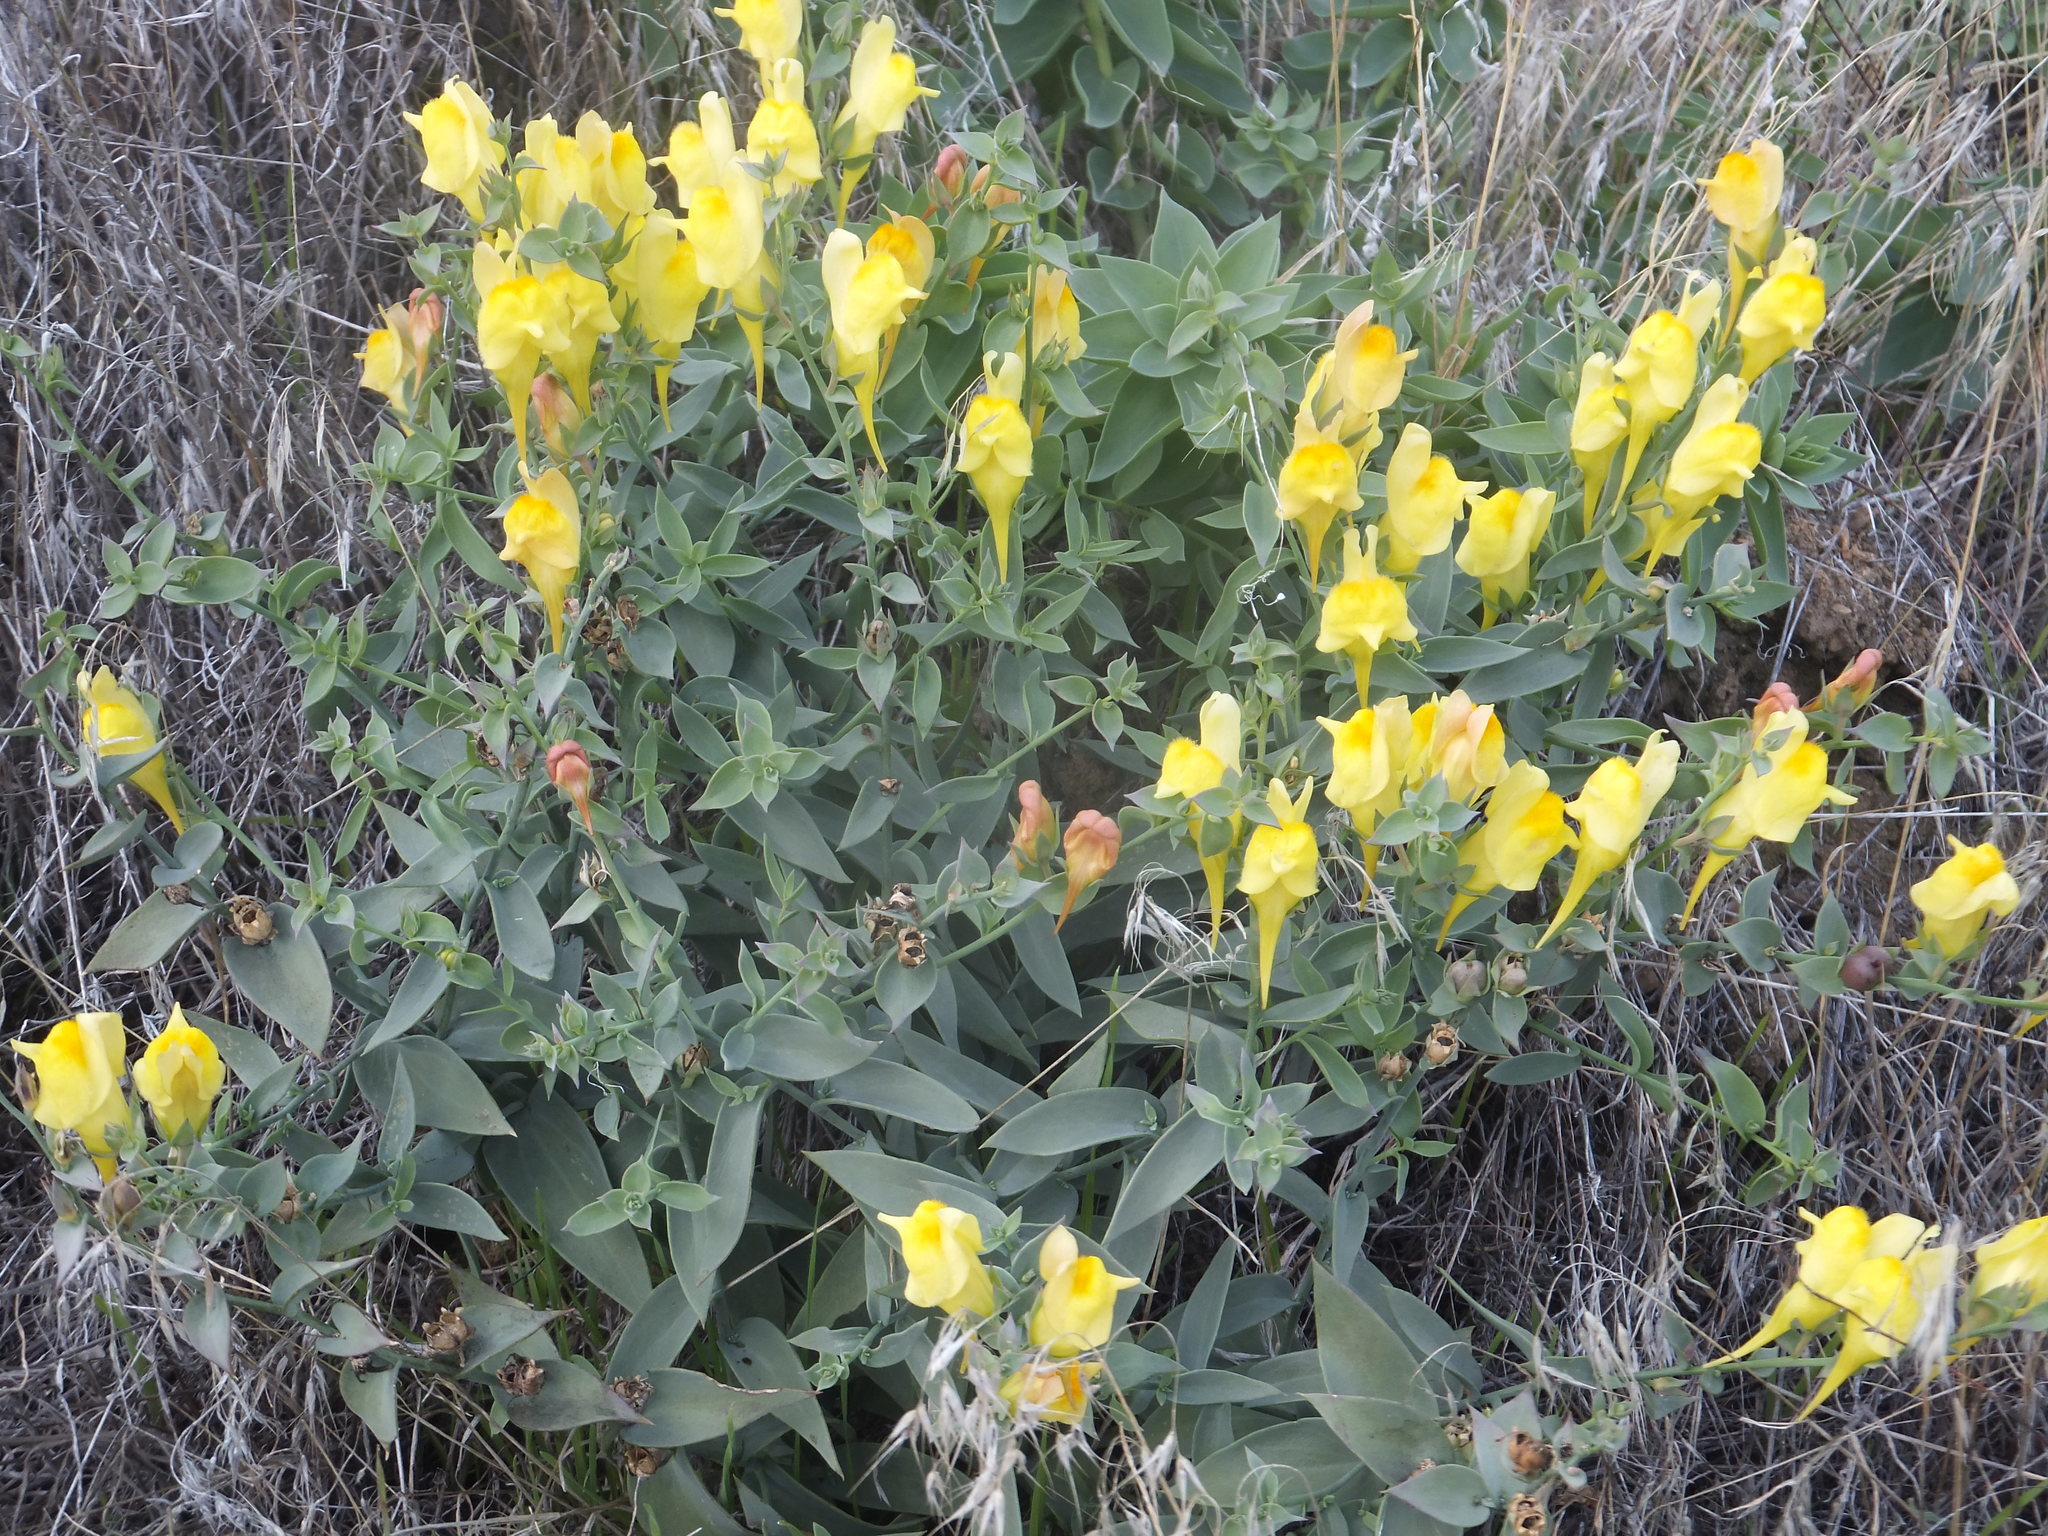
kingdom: Plantae
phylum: Tracheophyta
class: Magnoliopsida
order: Lamiales
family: Plantaginaceae
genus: Linaria
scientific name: Linaria dalmatica
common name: Dalmatian toadflax
